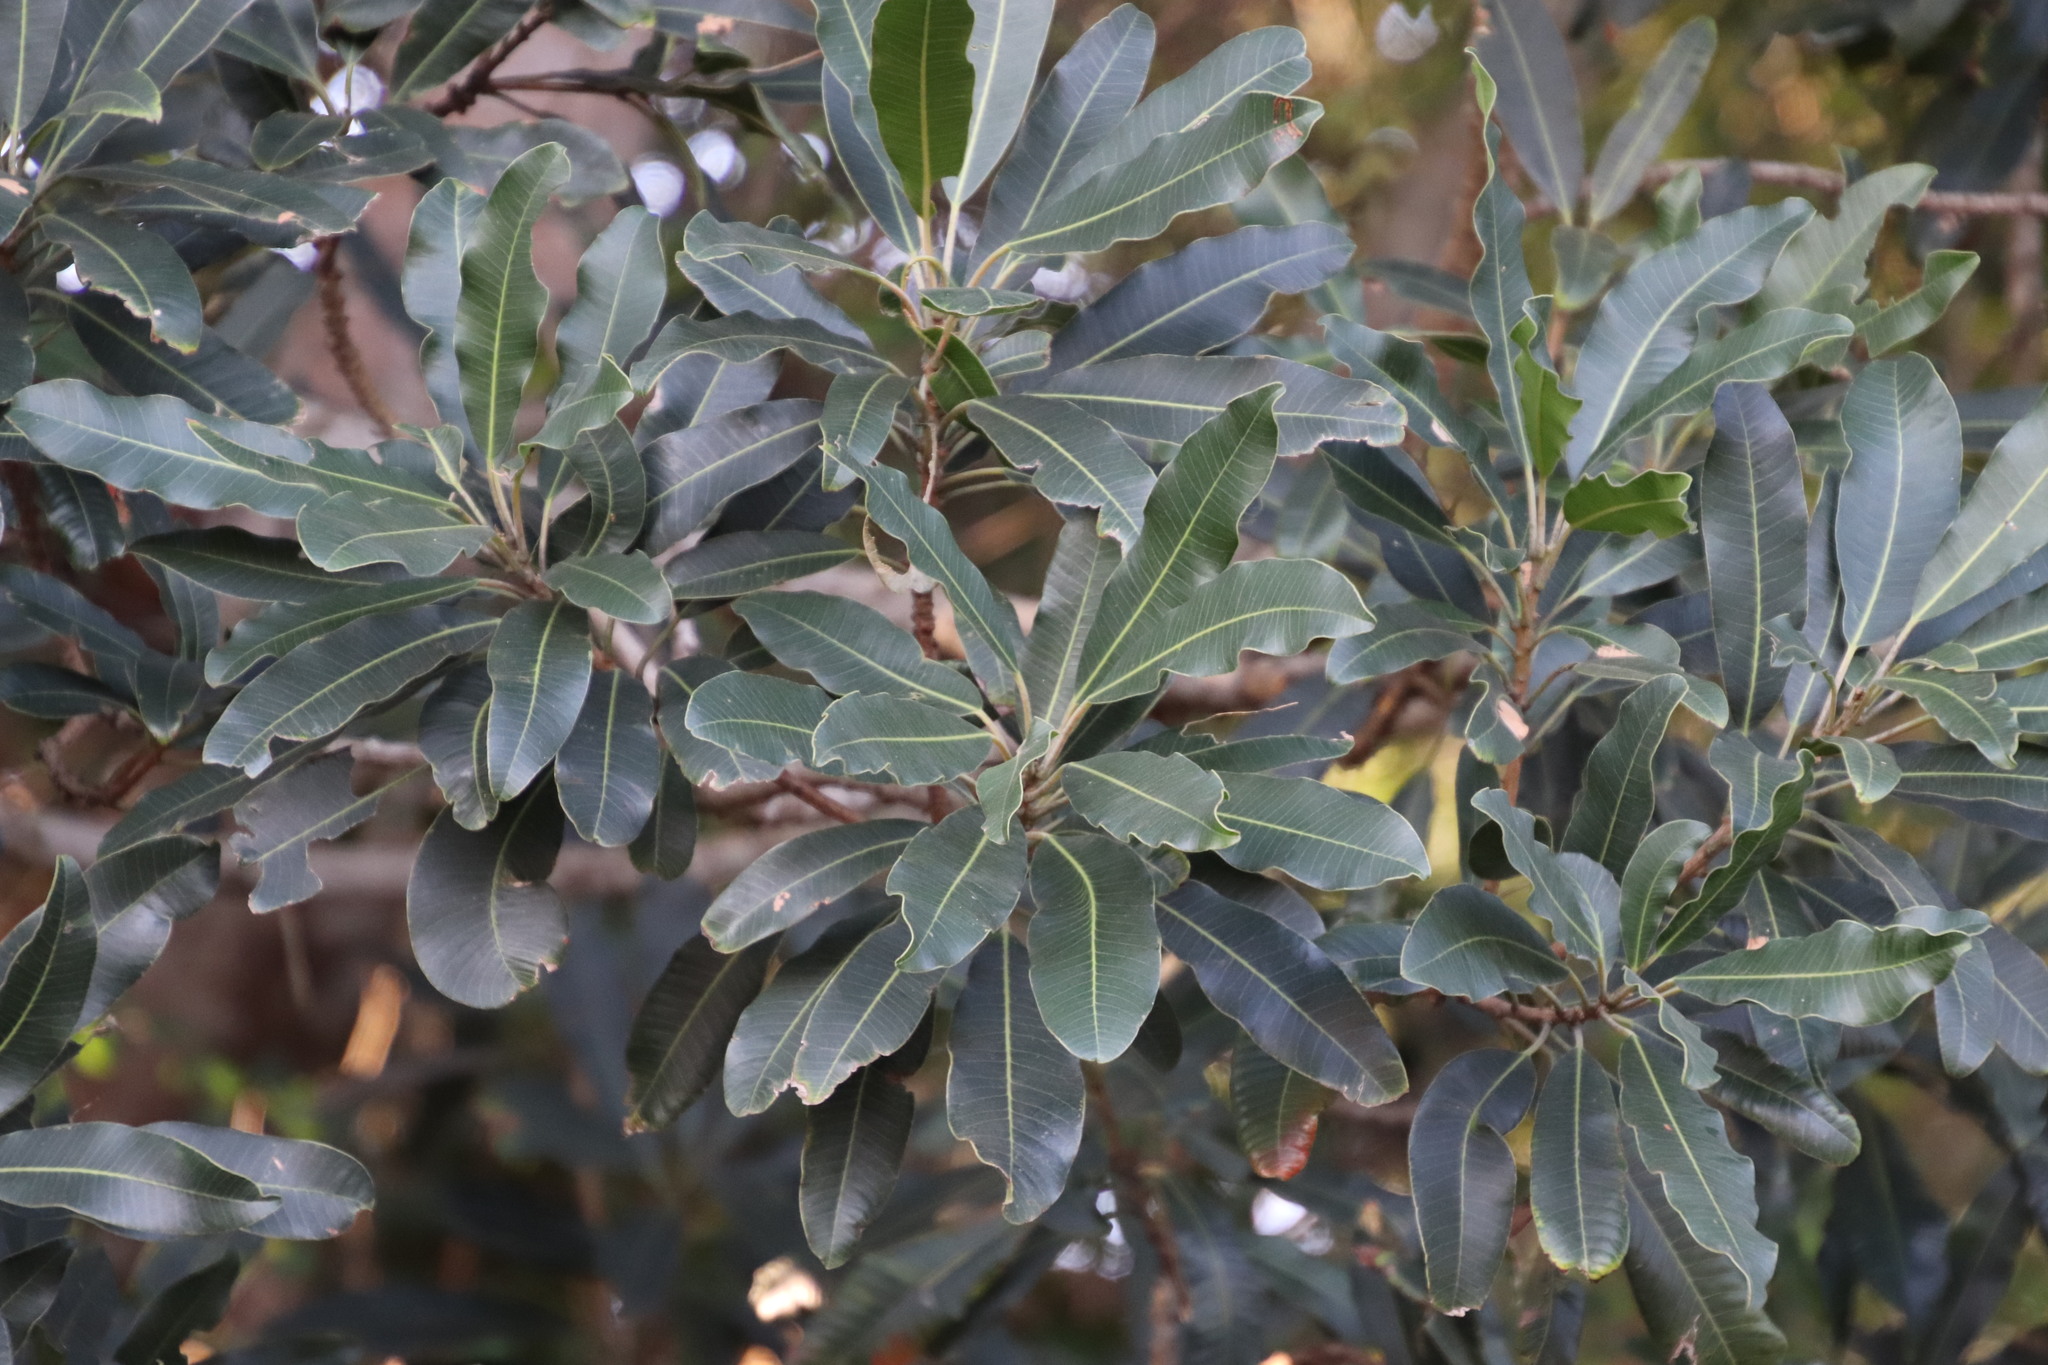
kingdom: Plantae
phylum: Tracheophyta
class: Magnoliopsida
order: Sapindales
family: Anacardiaceae
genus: Protorhus
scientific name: Protorhus longifolia
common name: Red-beech
